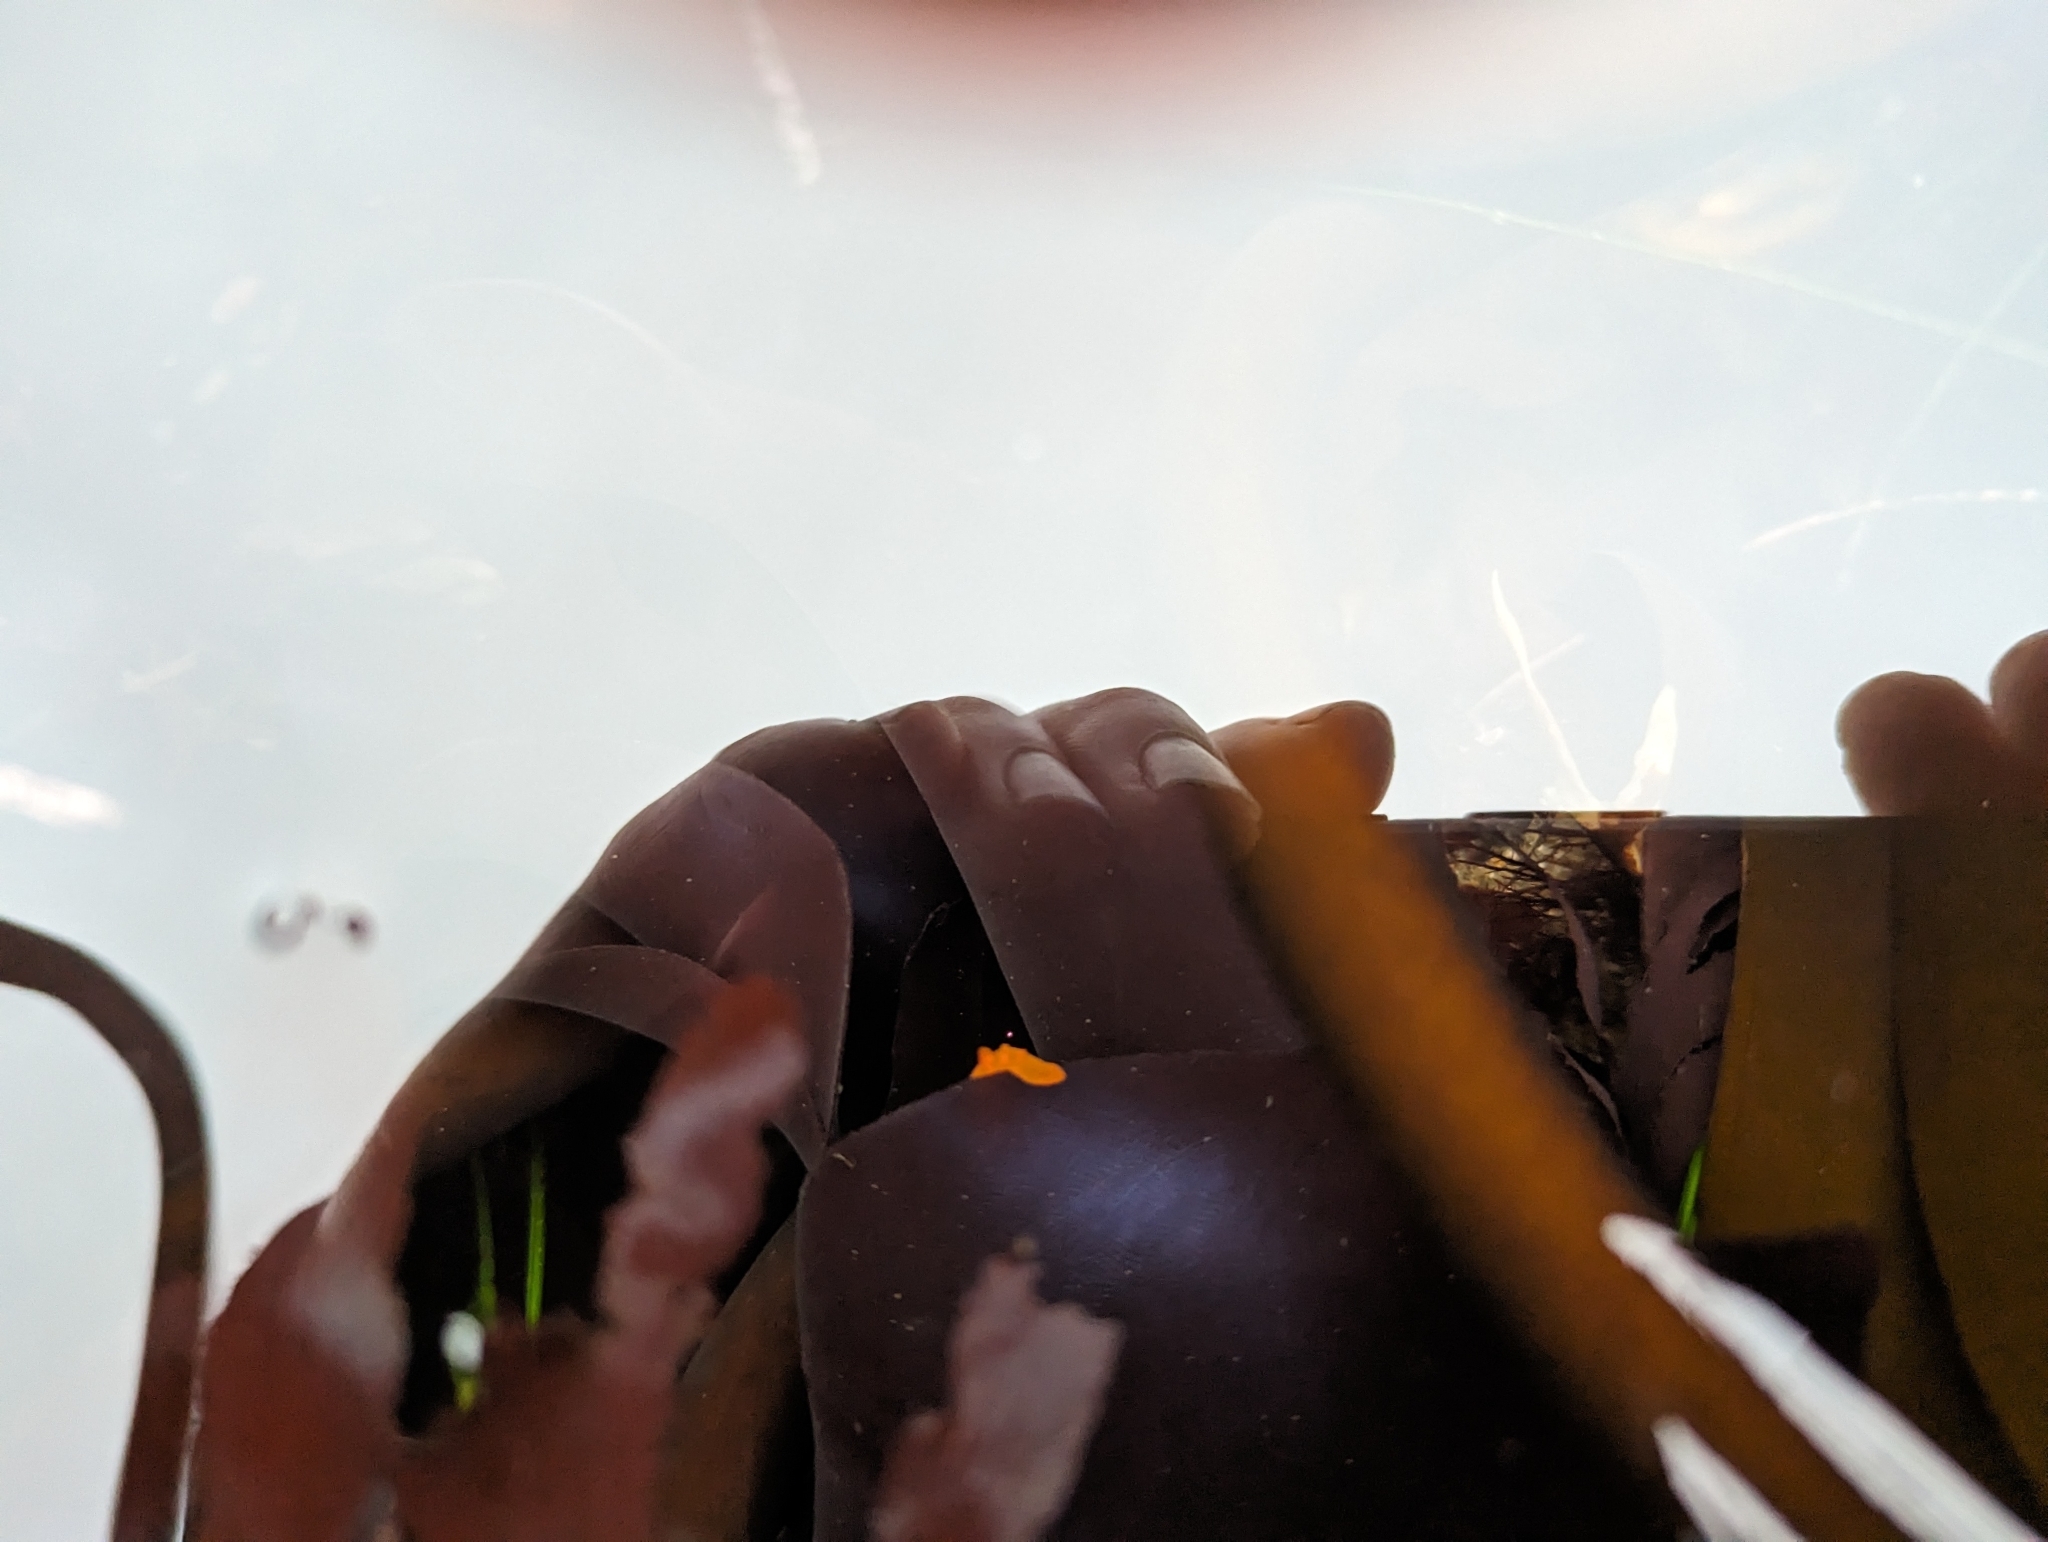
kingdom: Animalia
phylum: Mollusca
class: Gastropoda
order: Nudibranchia
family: Polyceridae
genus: Triopha
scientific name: Triopha maculata
